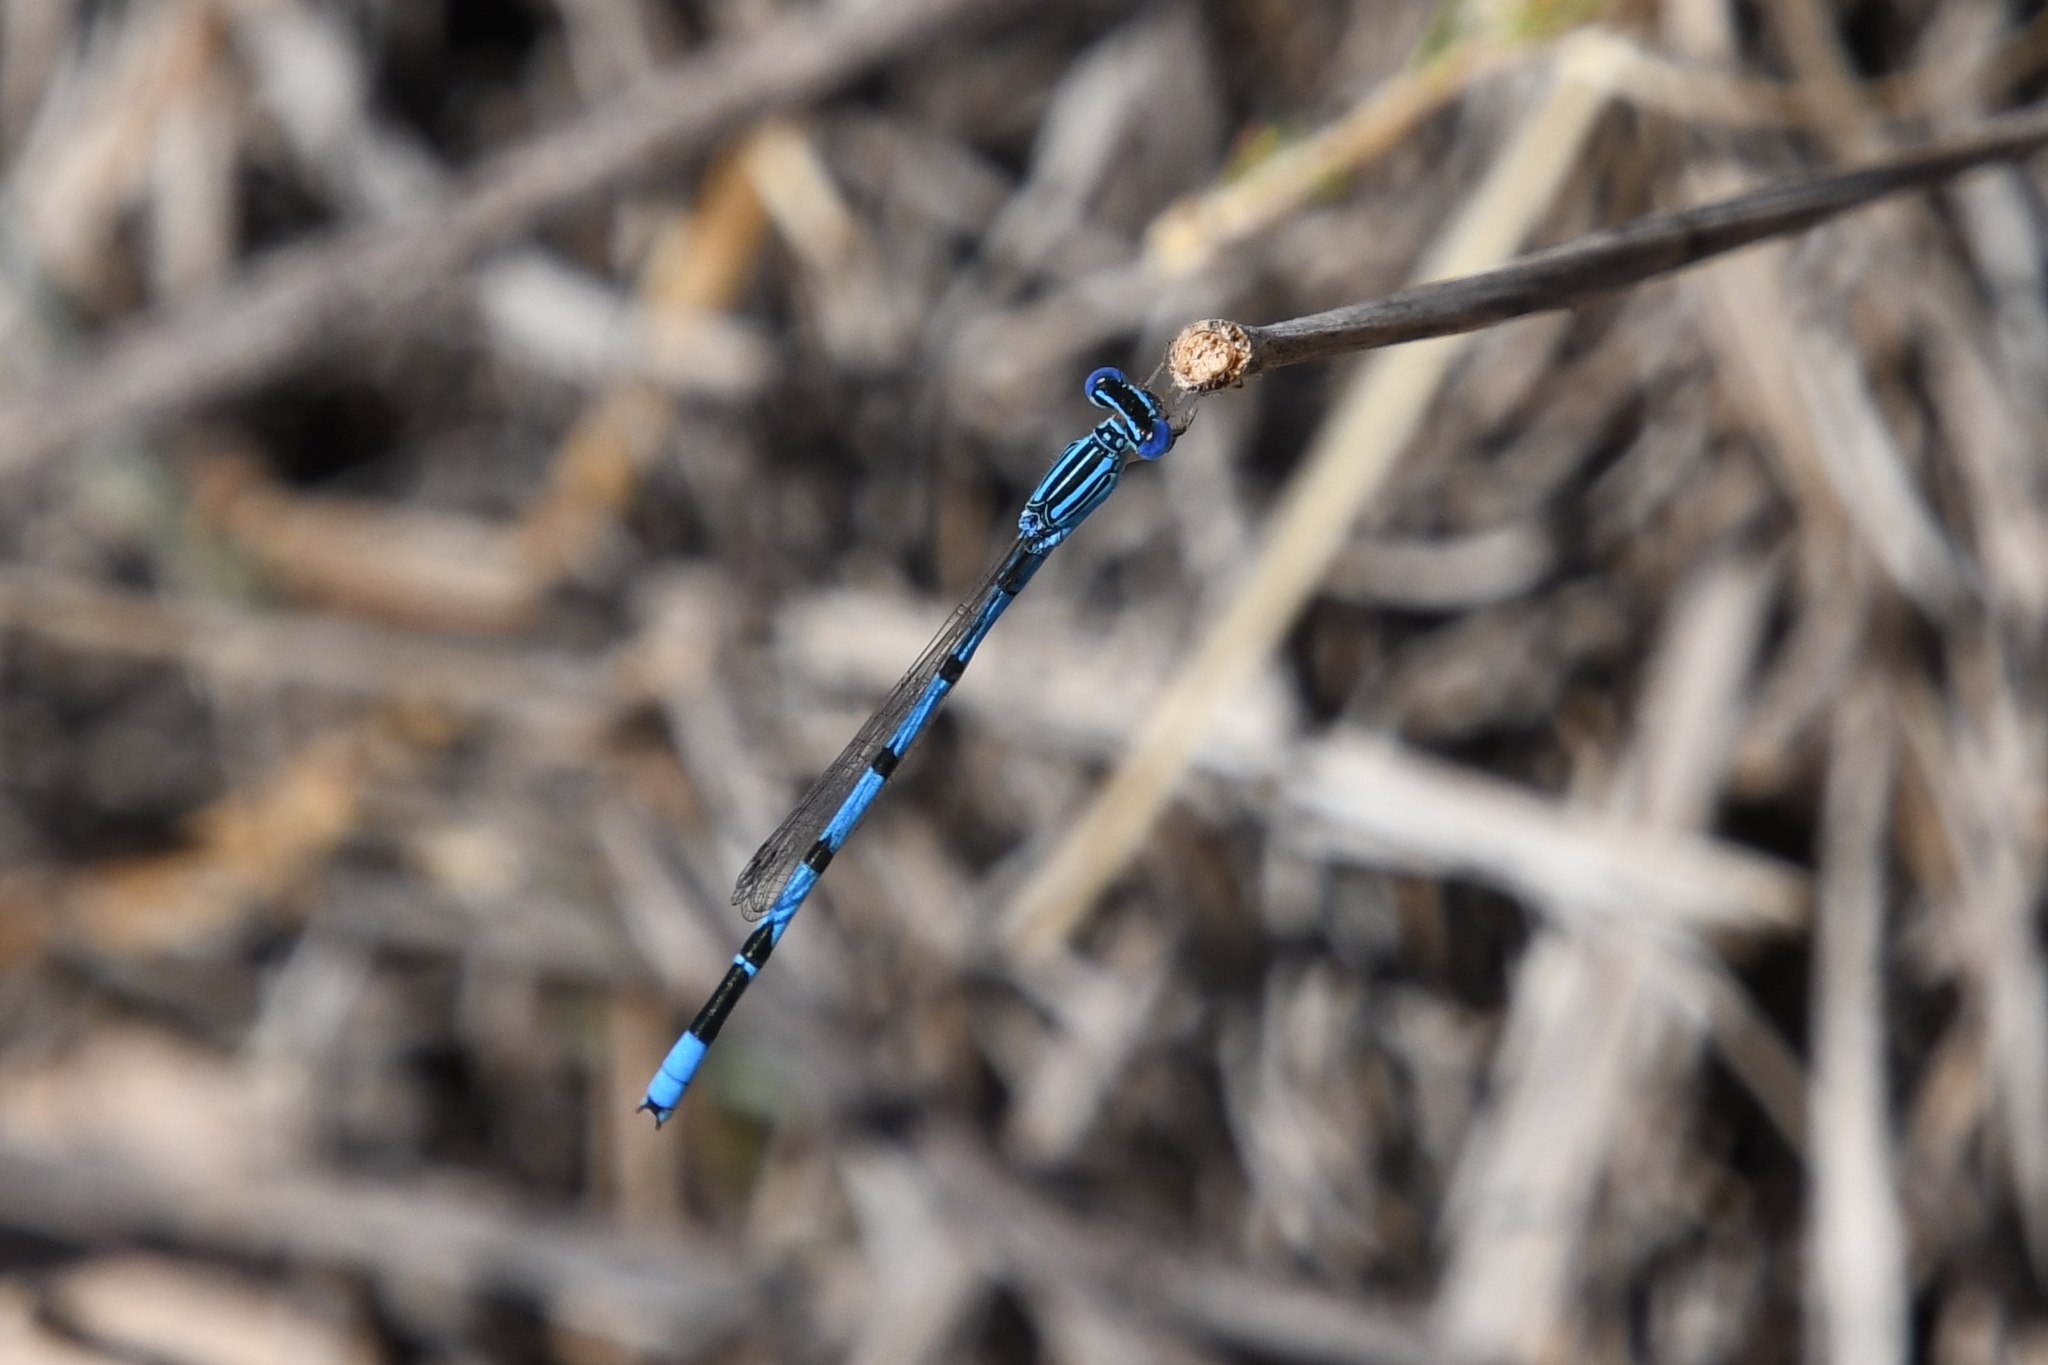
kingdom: Animalia
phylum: Arthropoda
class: Insecta
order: Odonata
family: Coenagrionidae
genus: Enallagma
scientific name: Enallagma basidens
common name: Double-striped bluet
